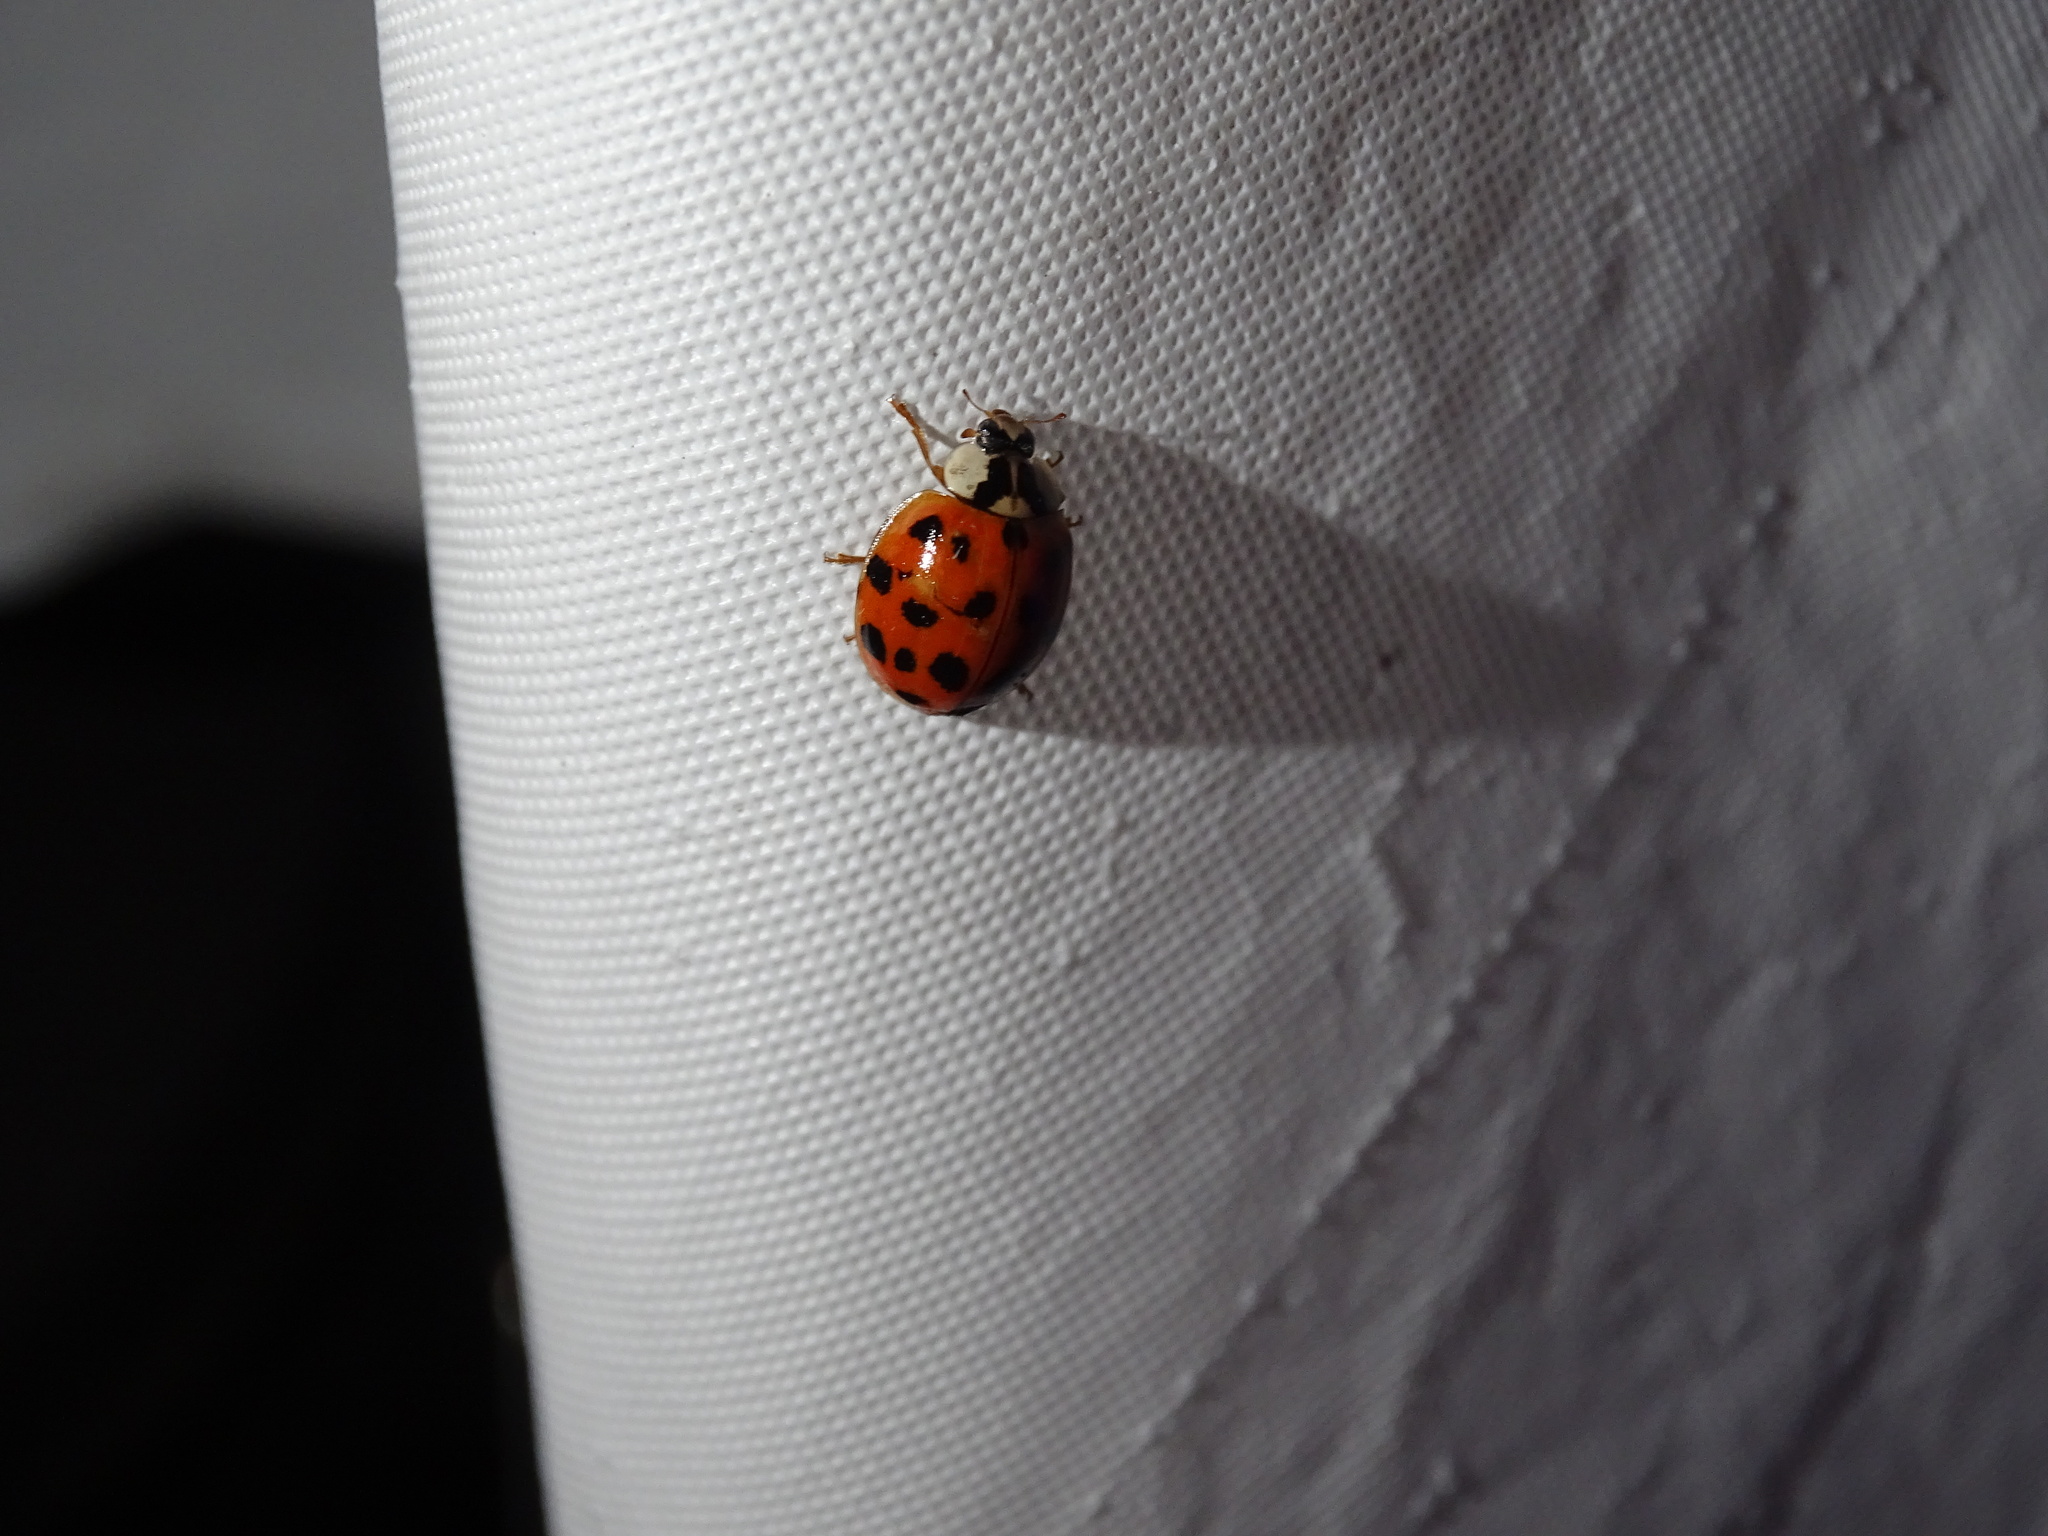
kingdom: Animalia
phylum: Arthropoda
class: Insecta
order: Coleoptera
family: Coccinellidae
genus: Harmonia
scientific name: Harmonia axyridis
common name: Harlequin ladybird
